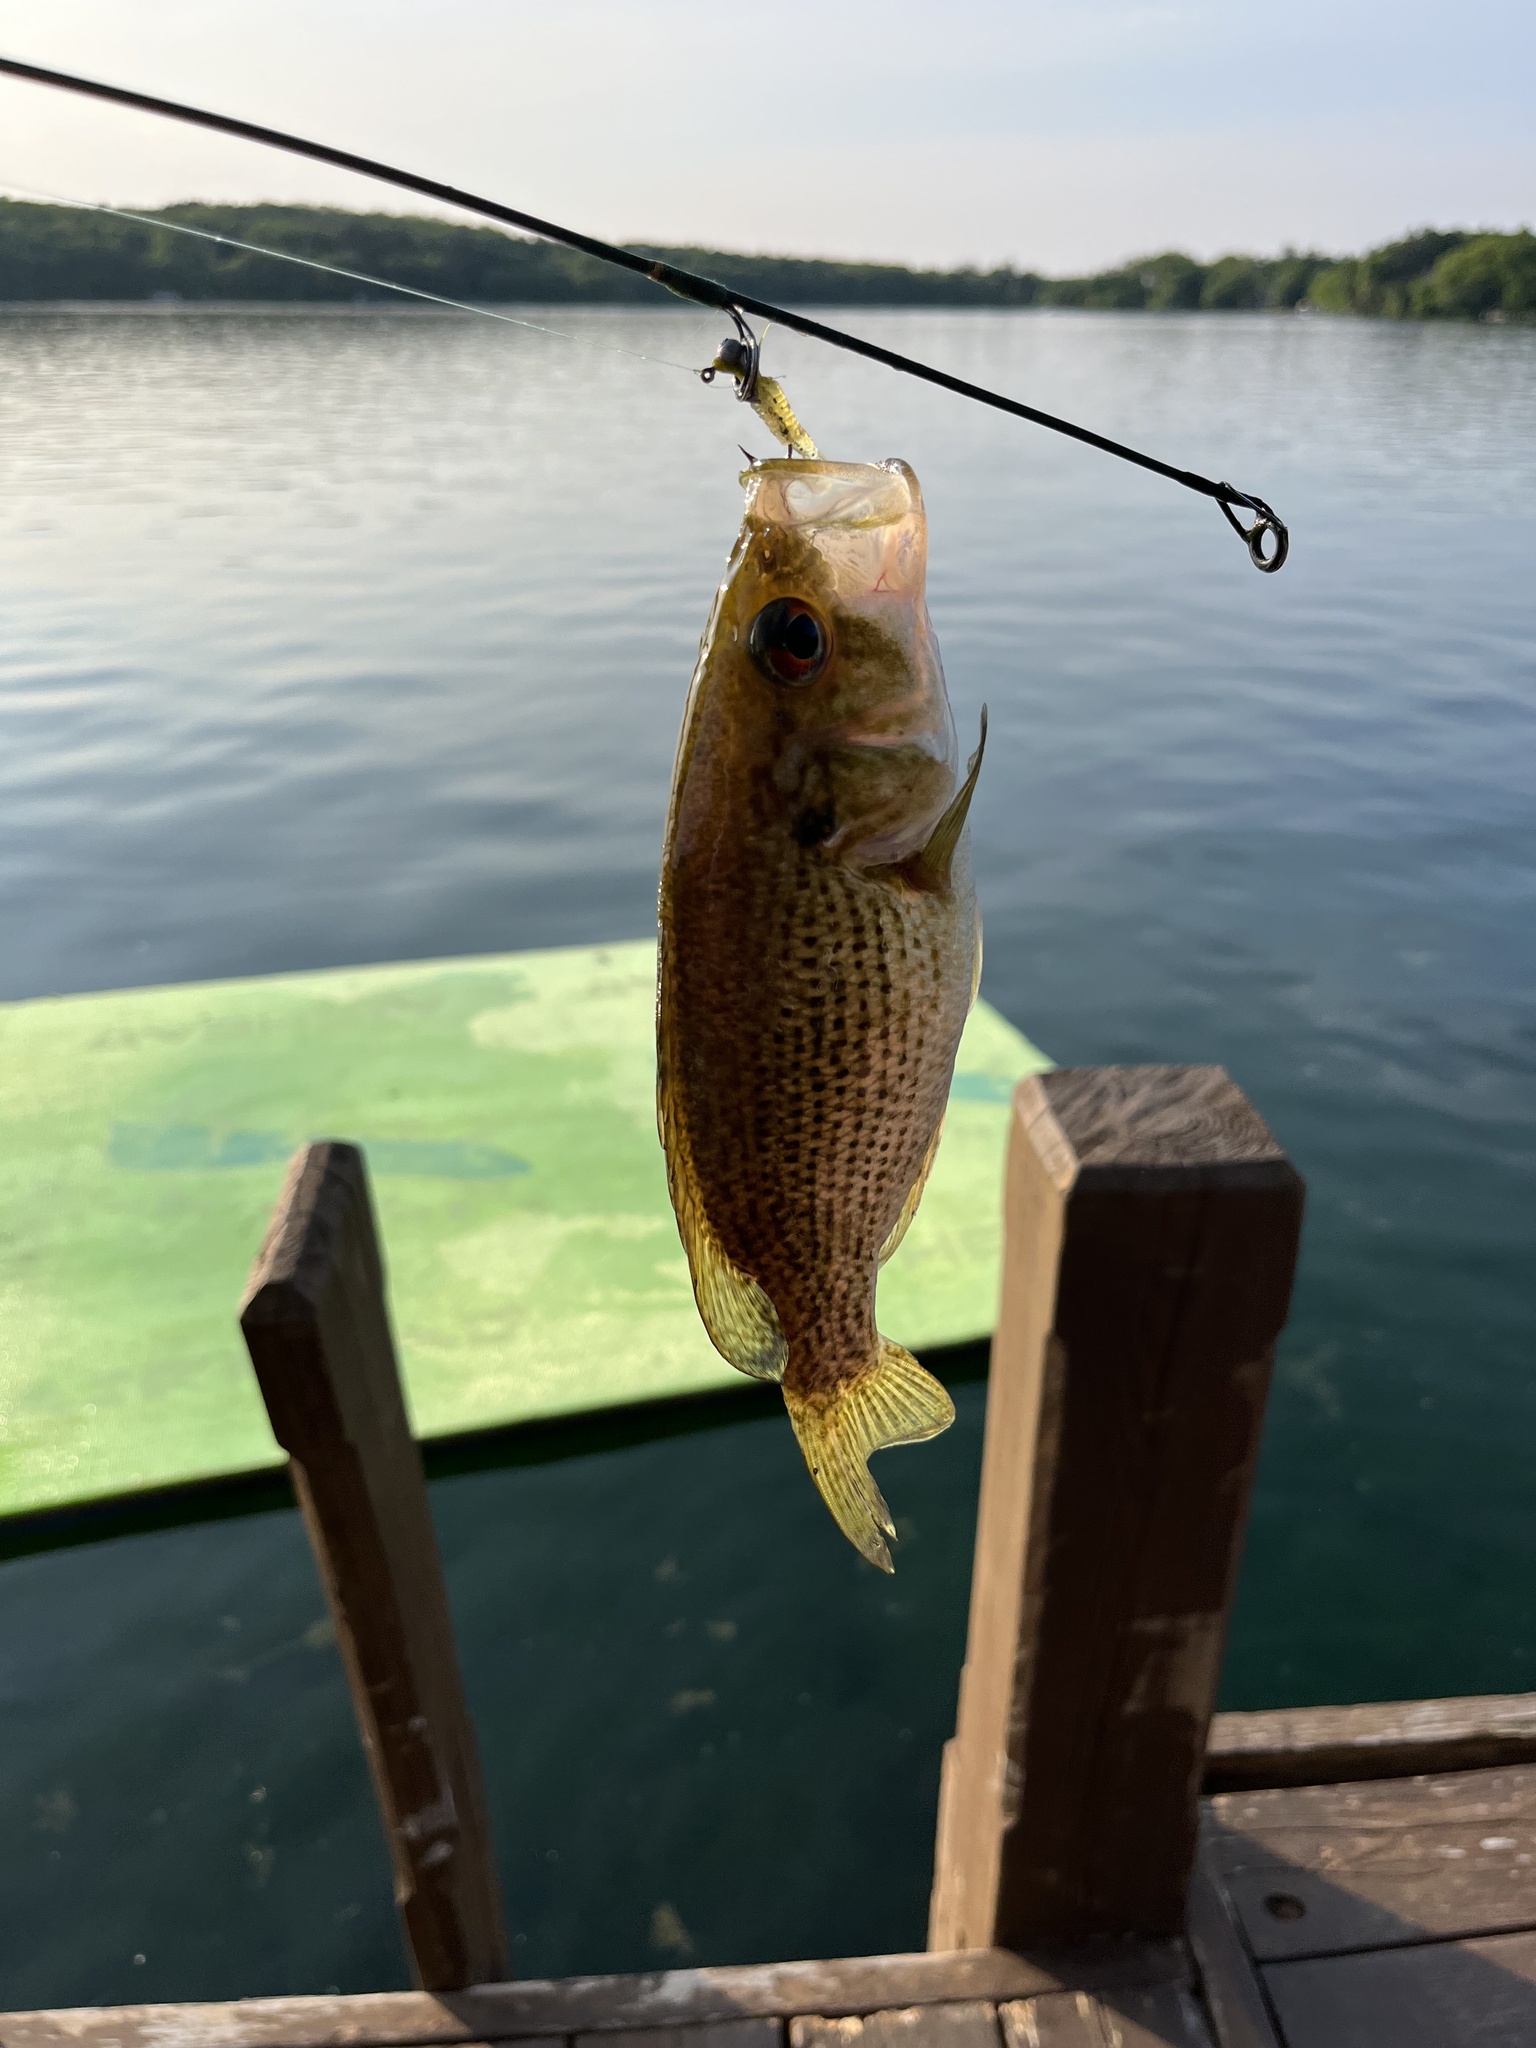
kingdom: Animalia
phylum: Chordata
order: Perciformes
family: Centrarchidae
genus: Ambloplites
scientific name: Ambloplites rupestris
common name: Rock bass
